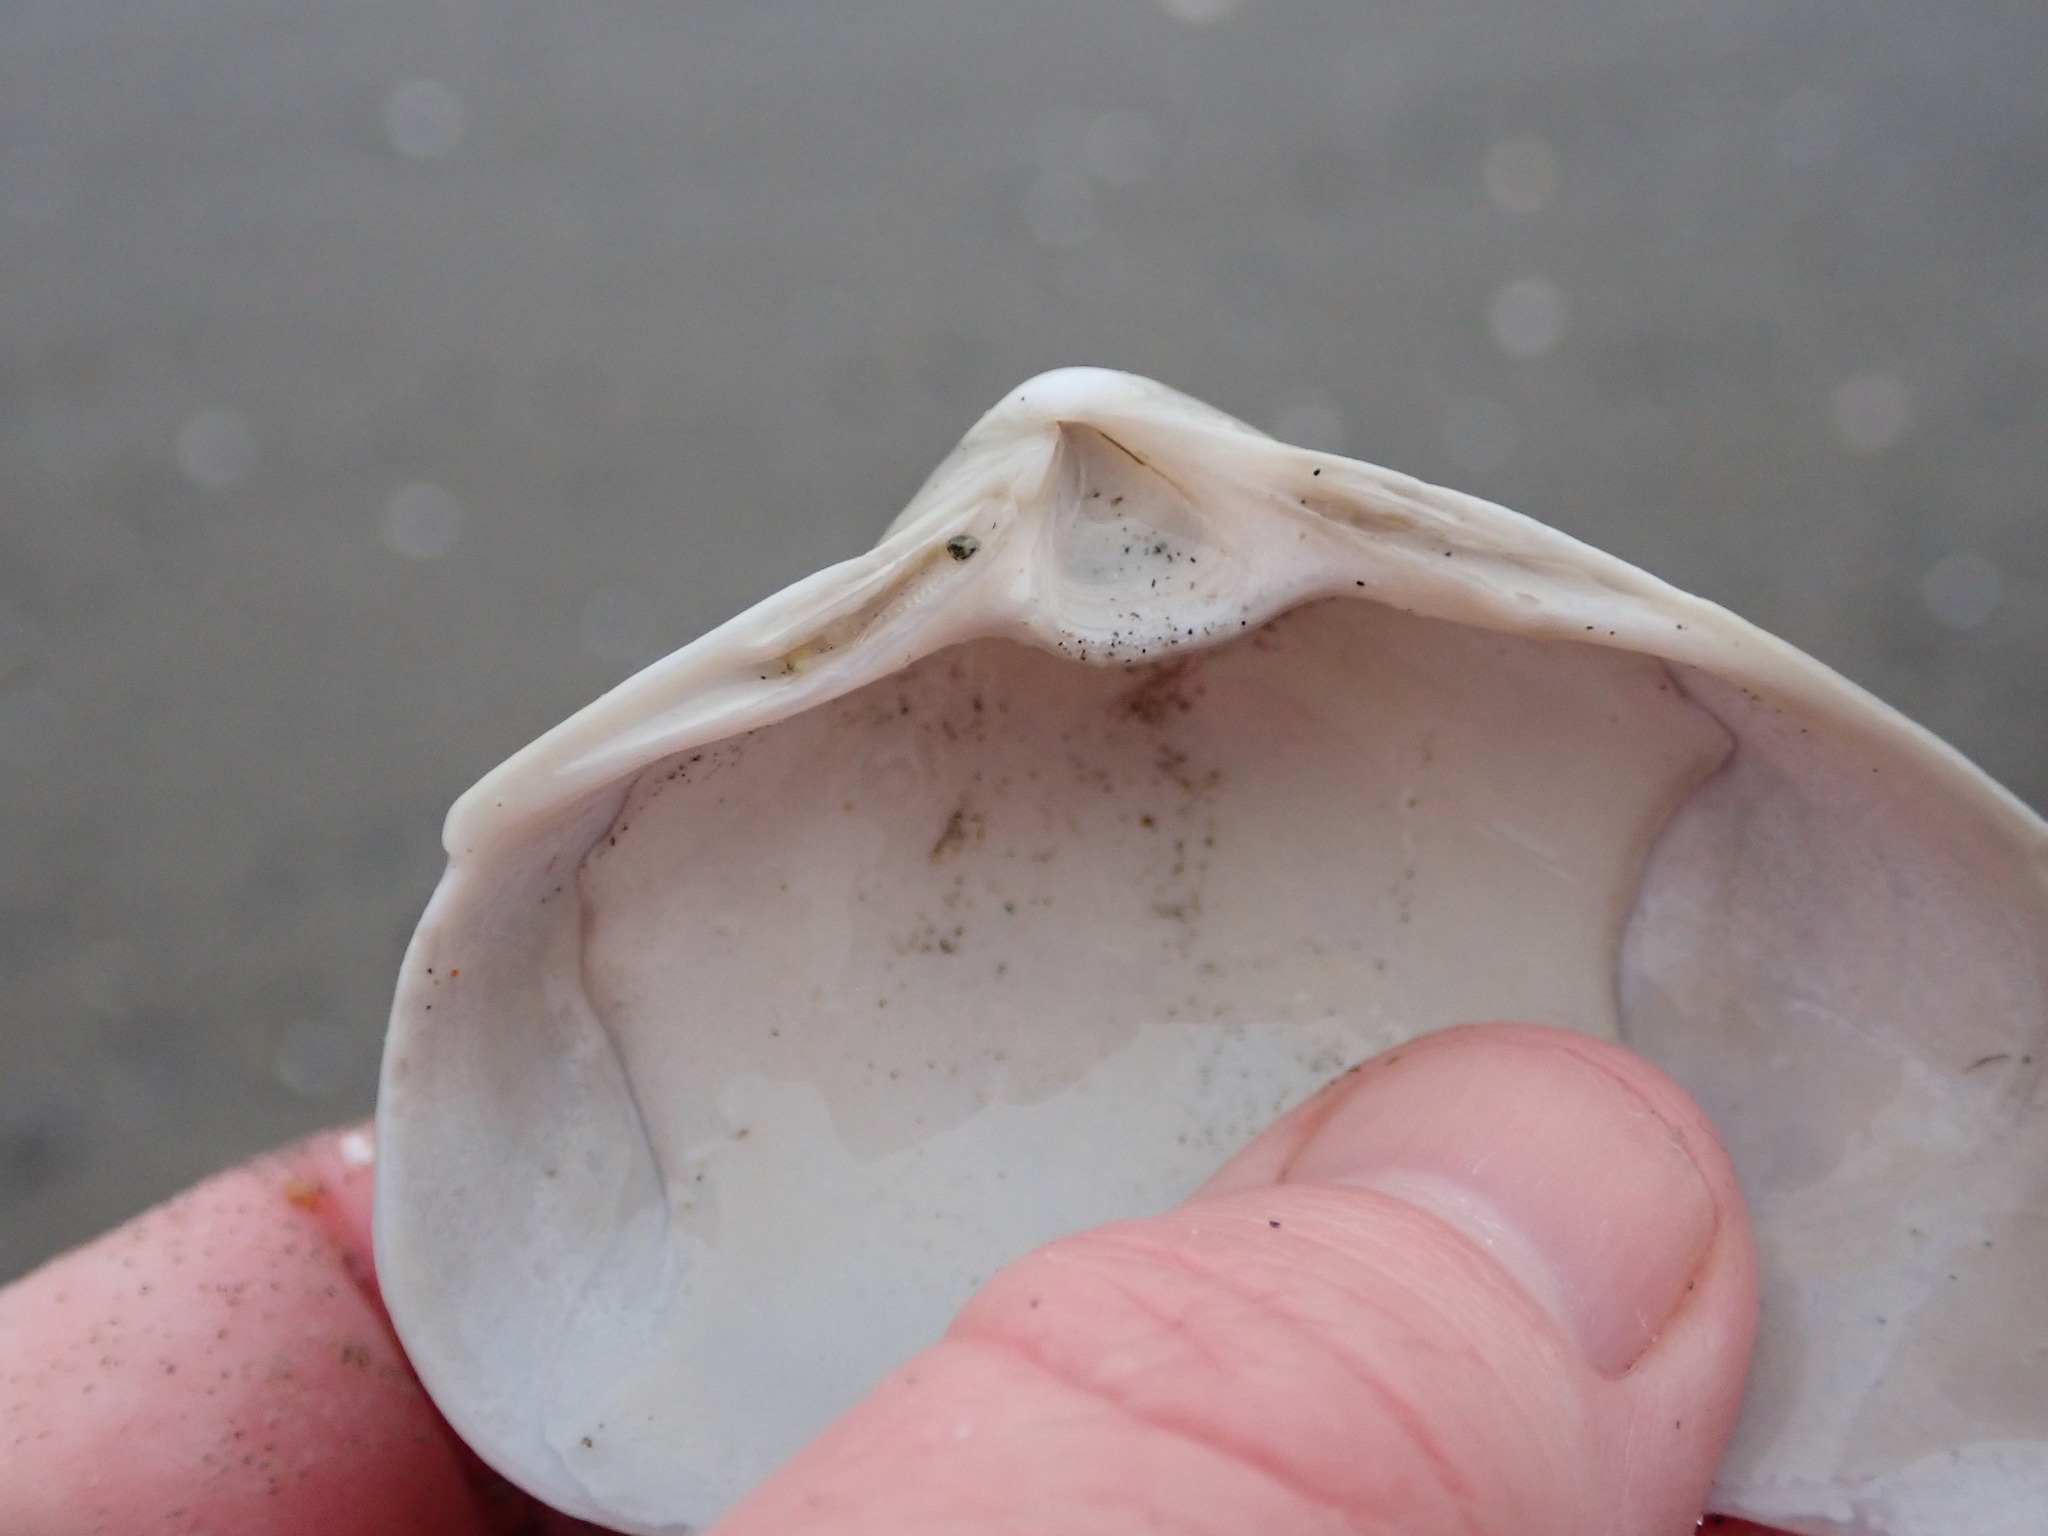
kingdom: Animalia
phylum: Mollusca
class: Bivalvia
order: Venerida
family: Mactridae
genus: Spisula
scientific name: Spisula solidissima
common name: Atlantic surf clam
